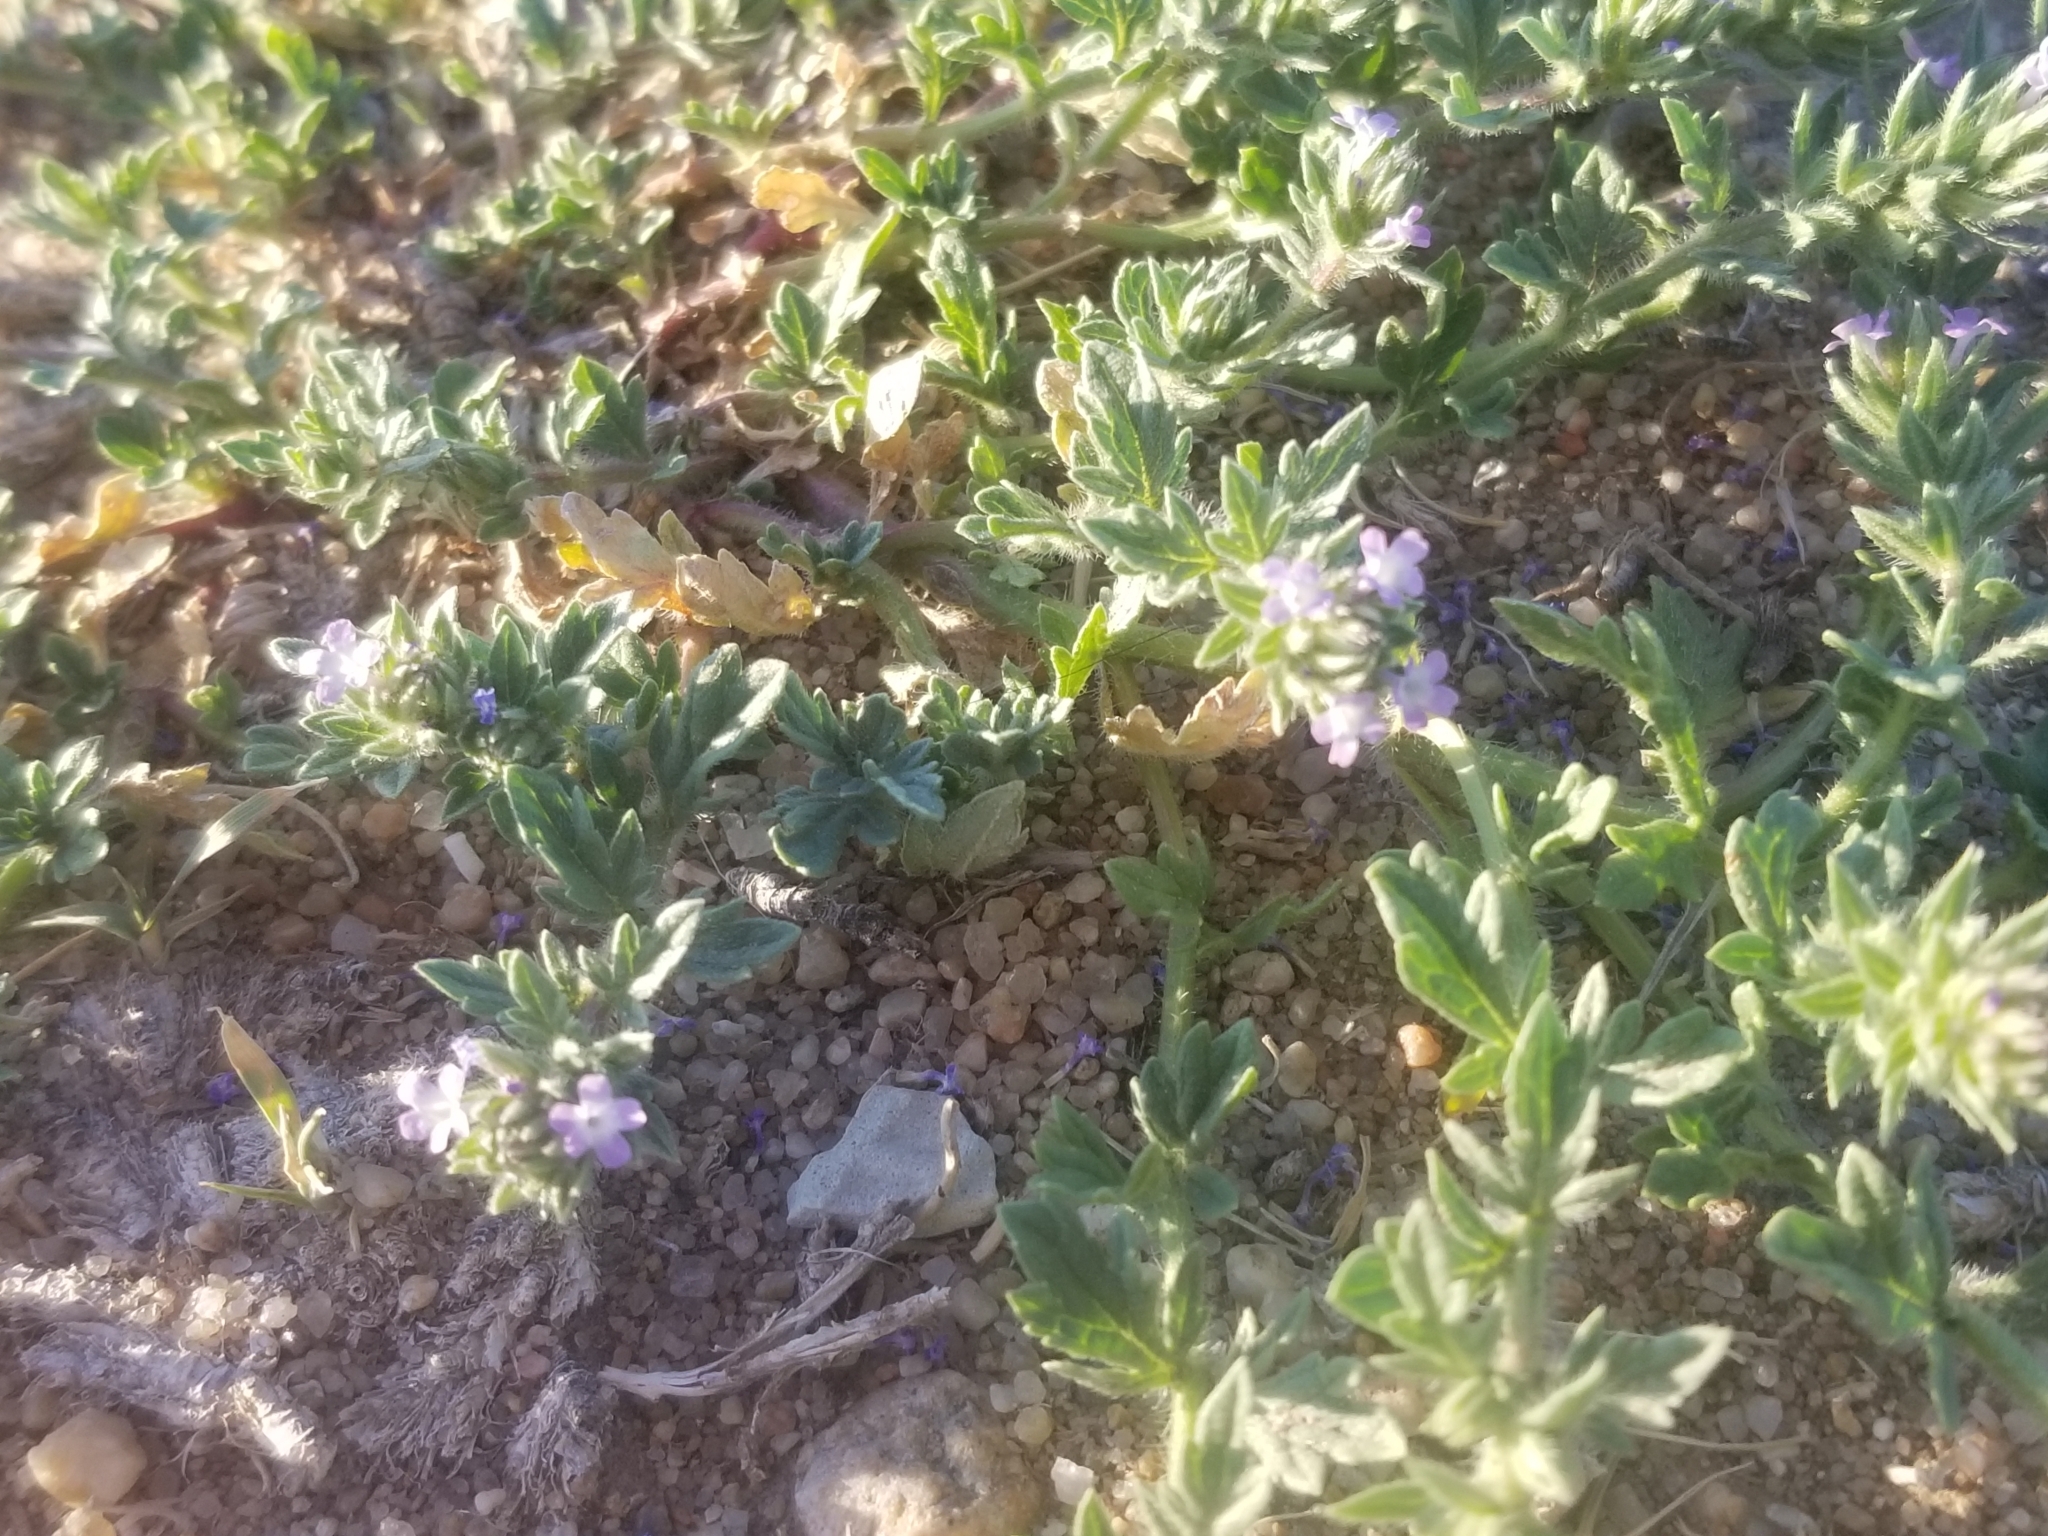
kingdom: Plantae
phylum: Tracheophyta
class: Magnoliopsida
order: Lamiales
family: Verbenaceae
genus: Verbena
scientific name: Verbena bracteata
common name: Bracted vervain
